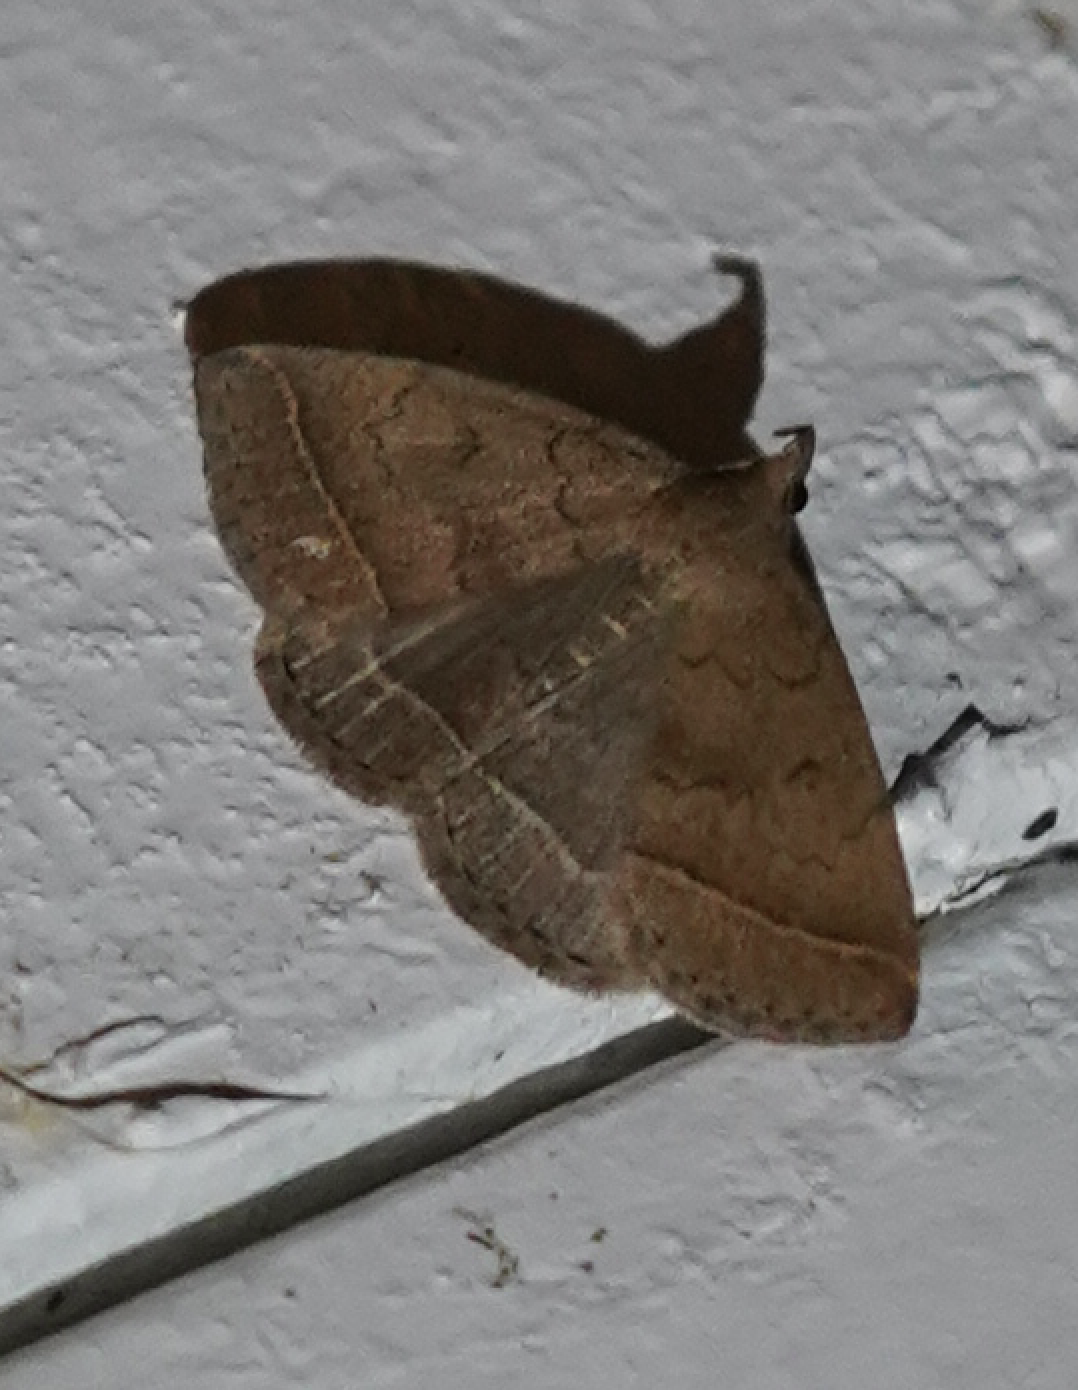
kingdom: Animalia
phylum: Arthropoda
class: Insecta
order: Lepidoptera
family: Erebidae
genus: Zanclognatha
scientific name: Zanclognatha jacchusalis
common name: Yellowish zanclognatha
